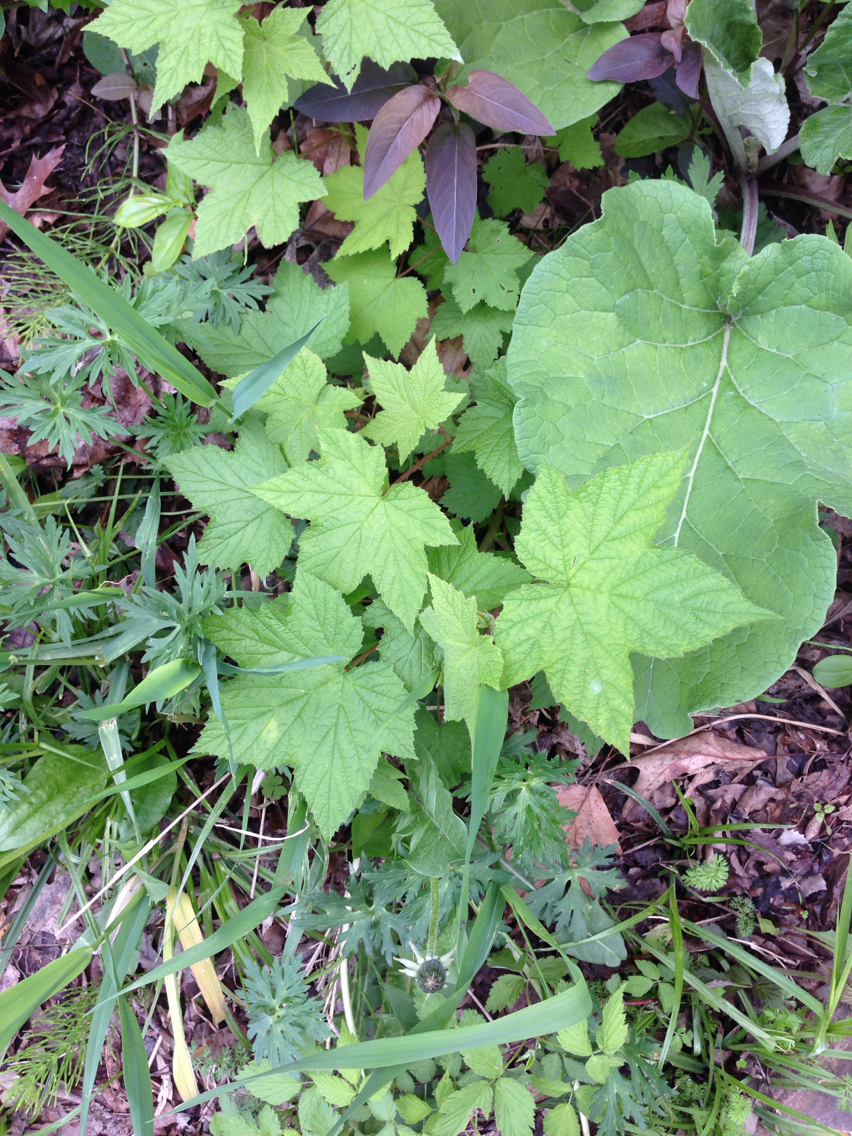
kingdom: Plantae
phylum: Tracheophyta
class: Magnoliopsida
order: Rosales
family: Rosaceae
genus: Rubus
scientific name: Rubus odoratus
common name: Purple-flowered raspberry
